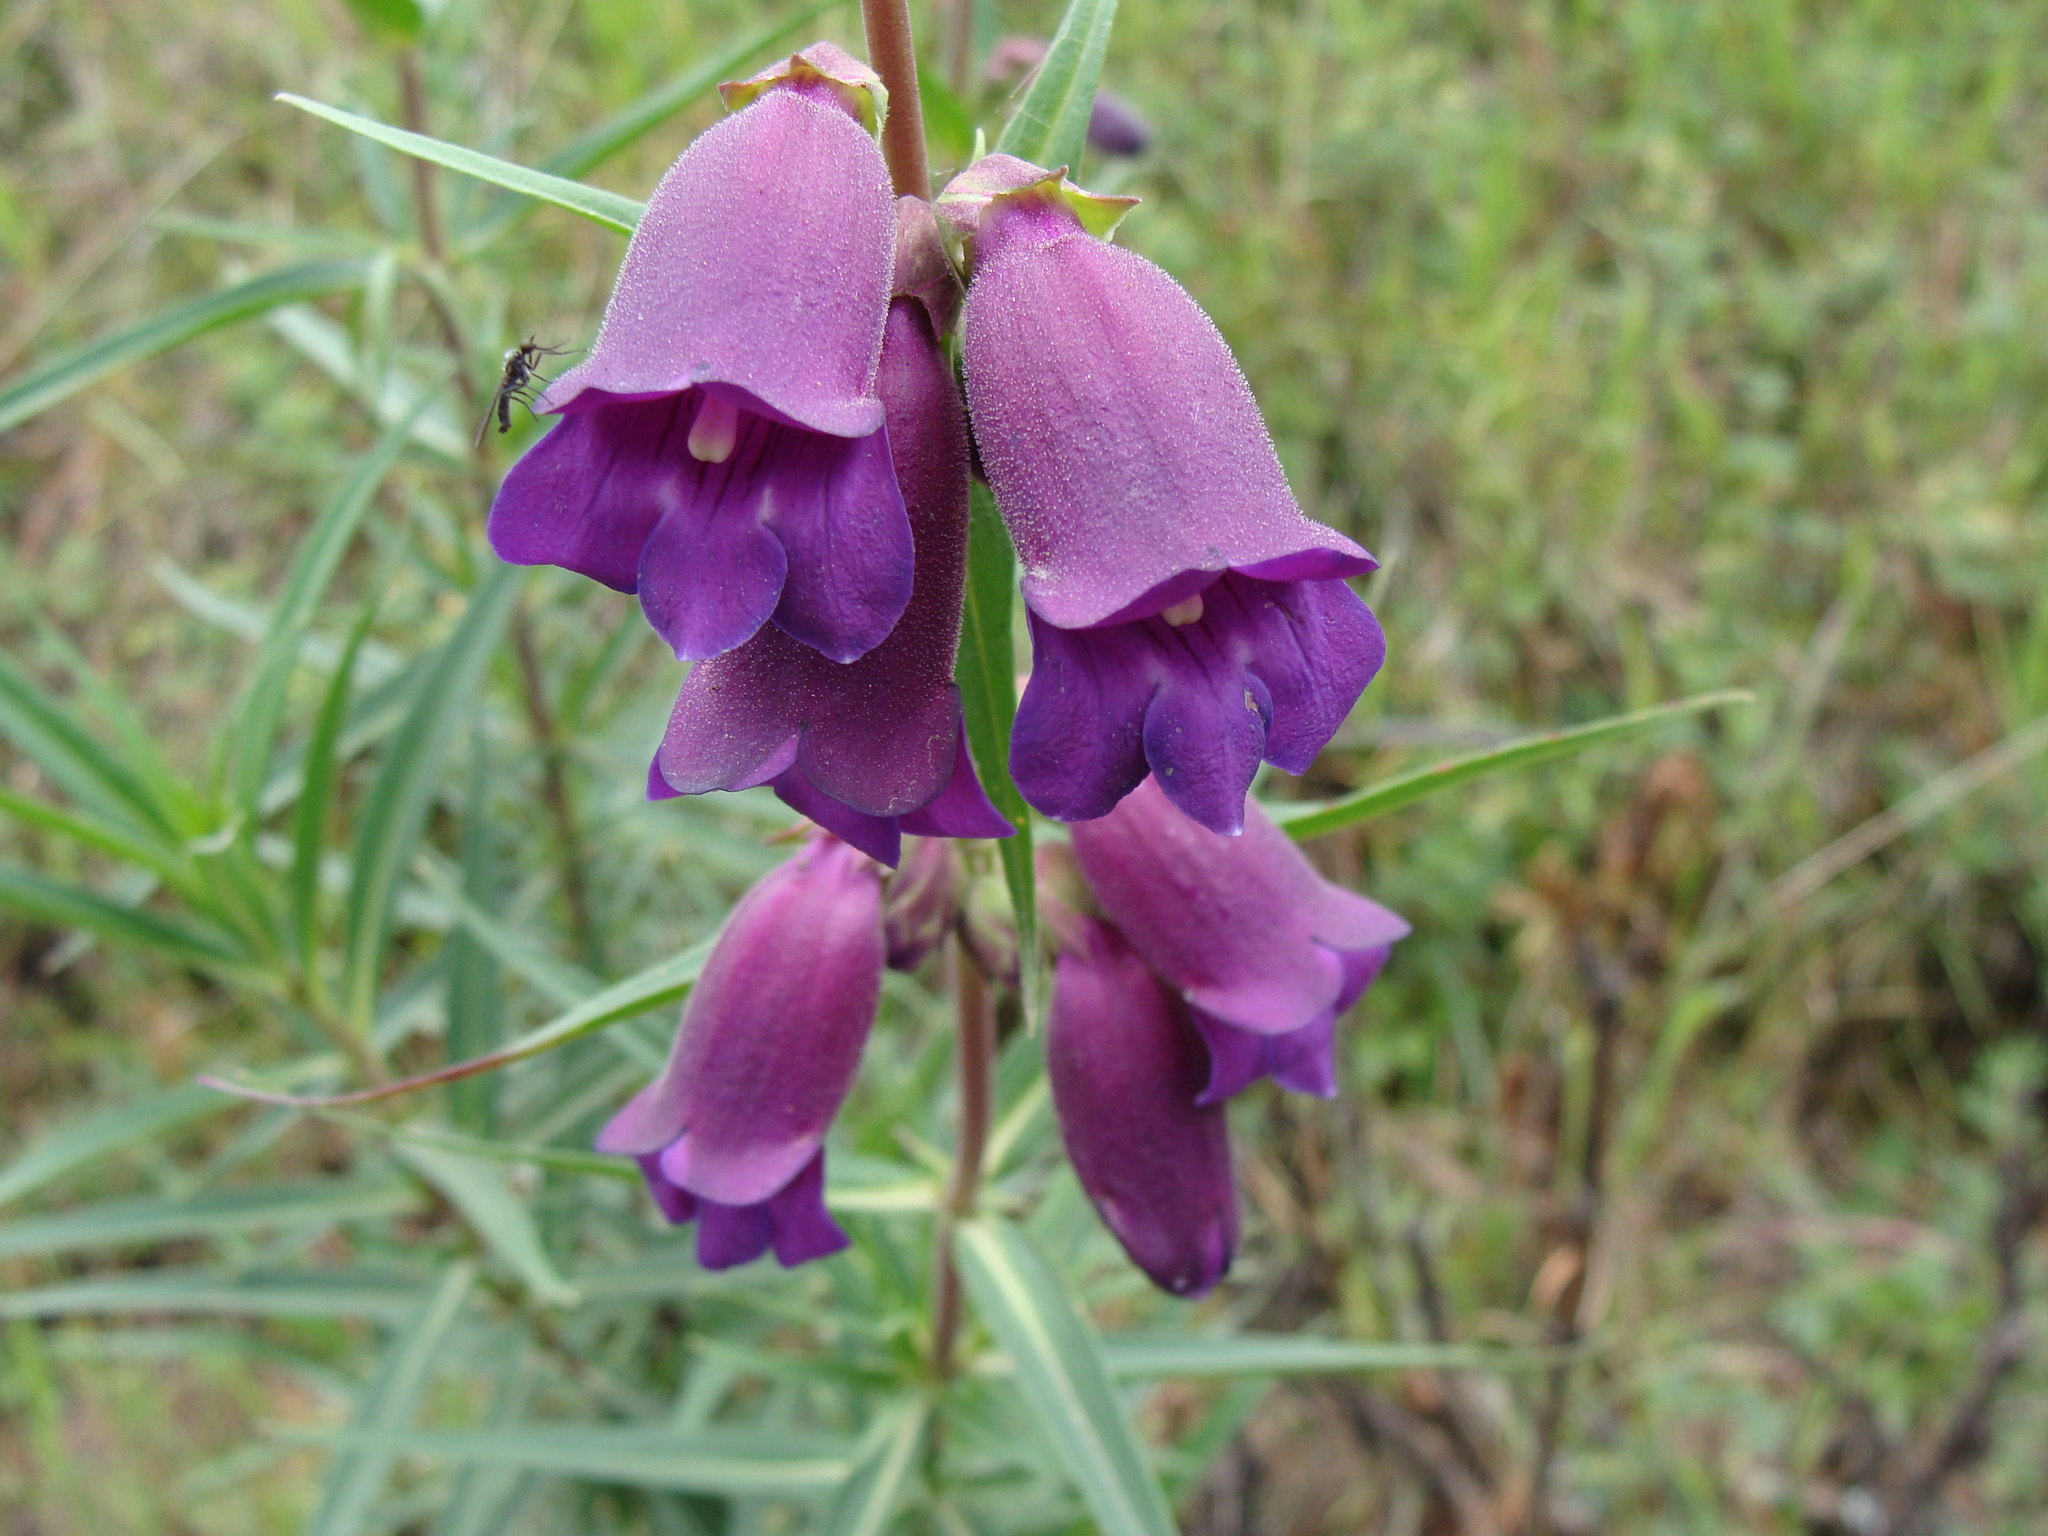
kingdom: Plantae
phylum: Tracheophyta
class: Magnoliopsida
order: Lamiales
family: Plantaginaceae
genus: Penstemon
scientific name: Penstemon gentianoides
